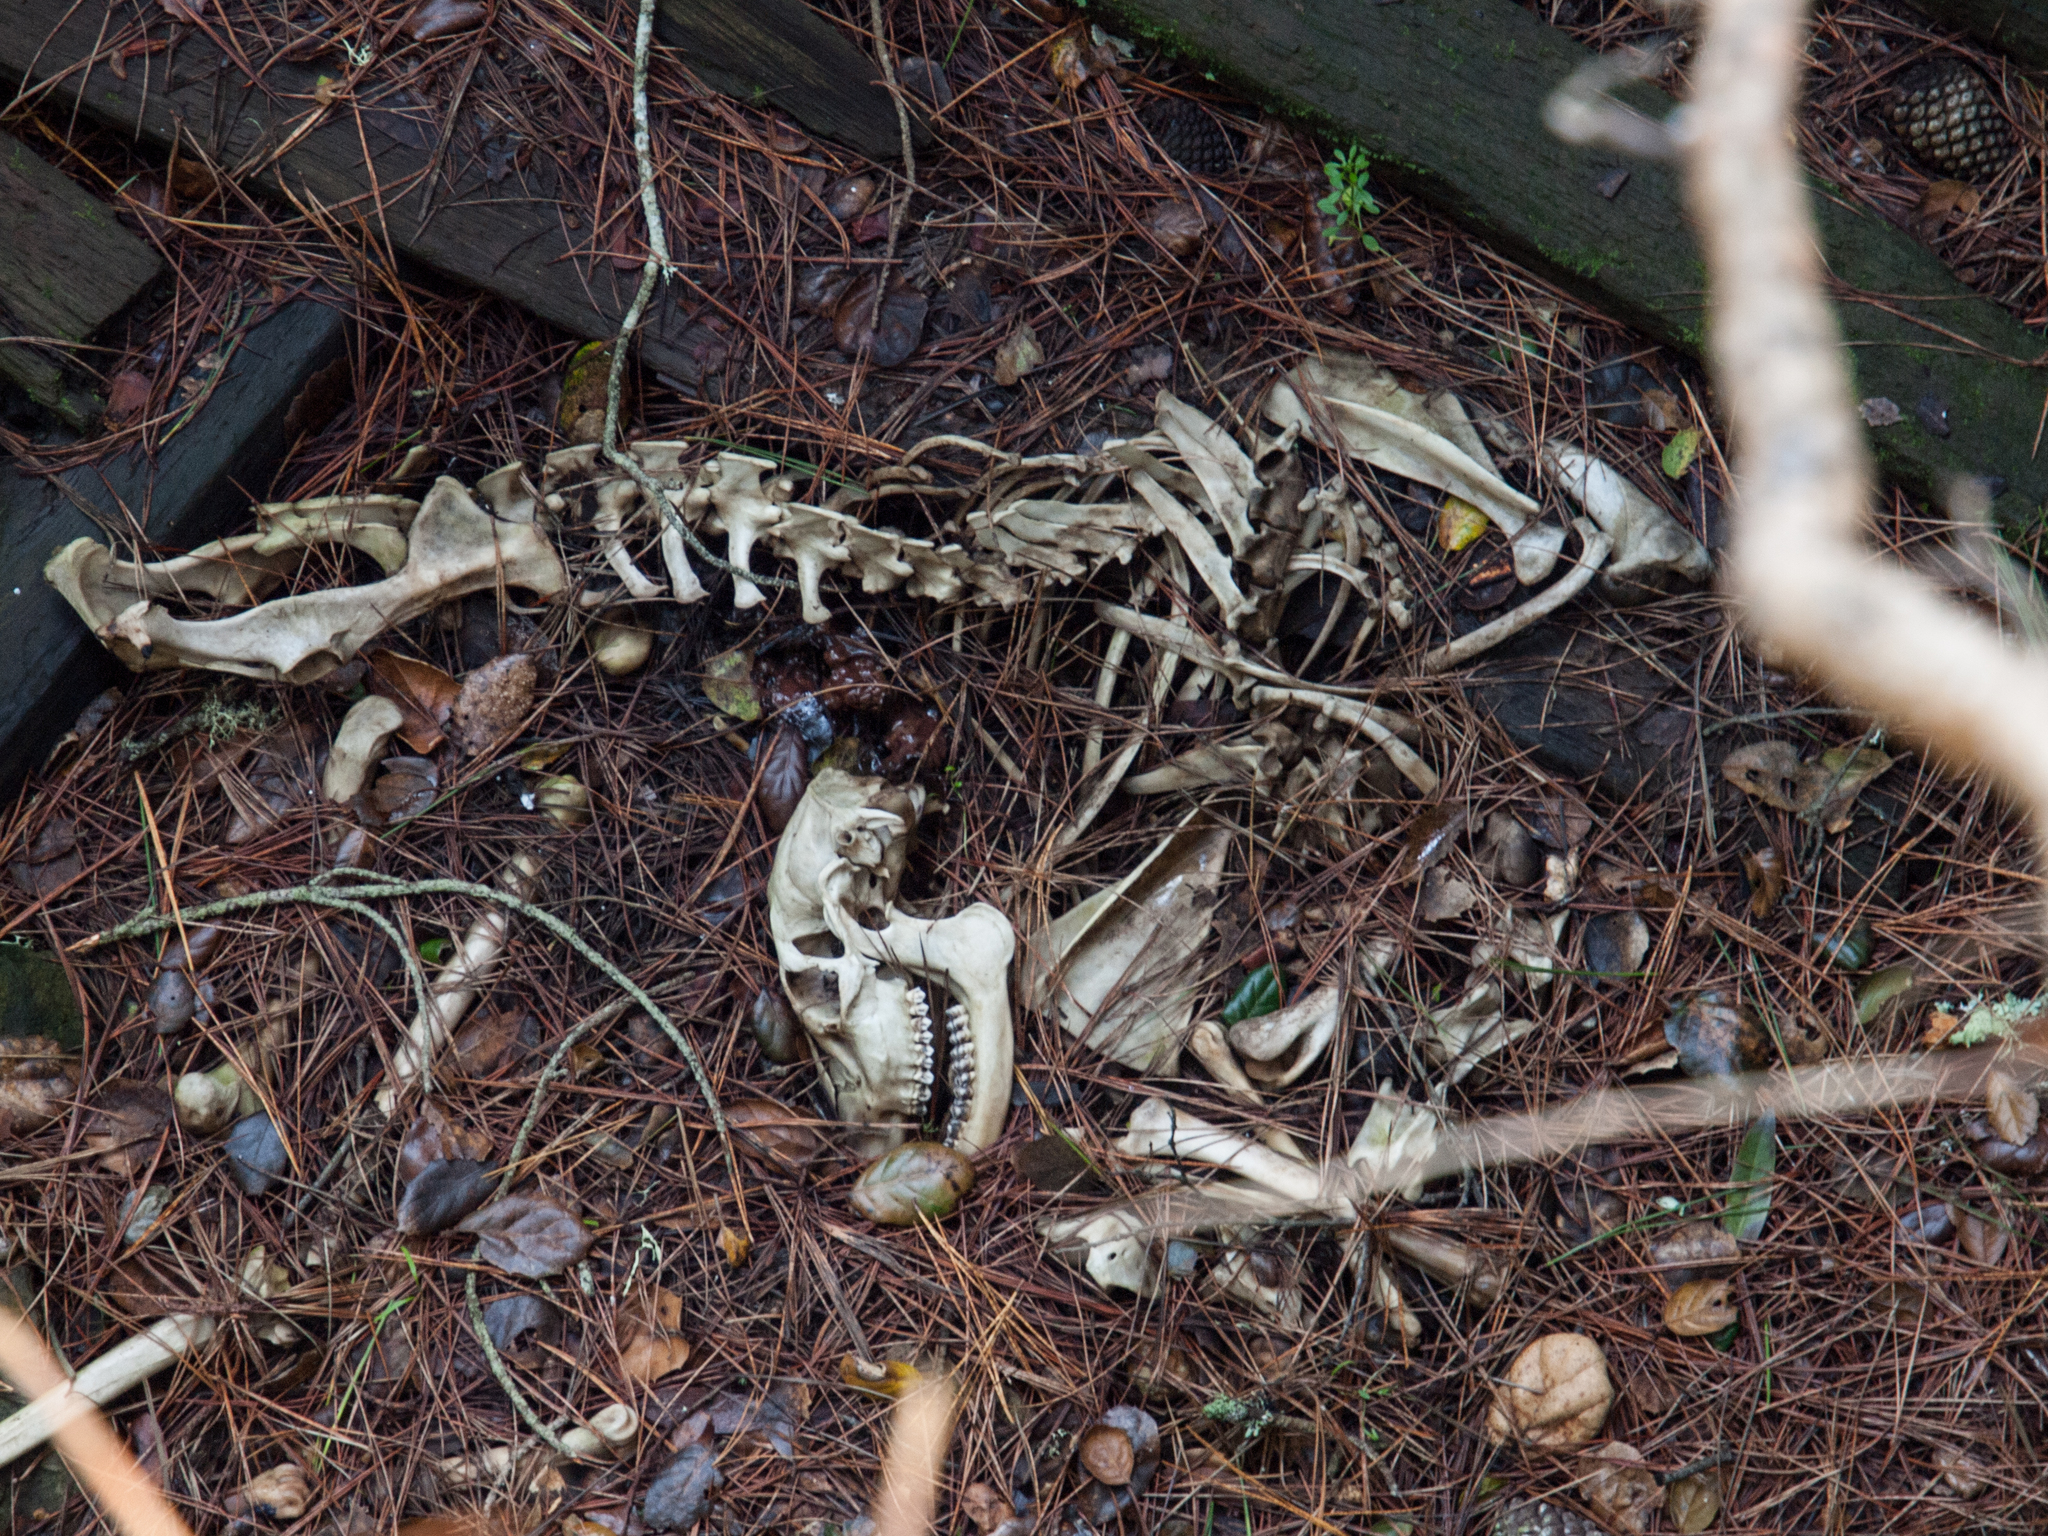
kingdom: Animalia
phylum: Chordata
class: Mammalia
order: Artiodactyla
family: Cervidae
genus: Odocoileus
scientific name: Odocoileus hemionus
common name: Mule deer
